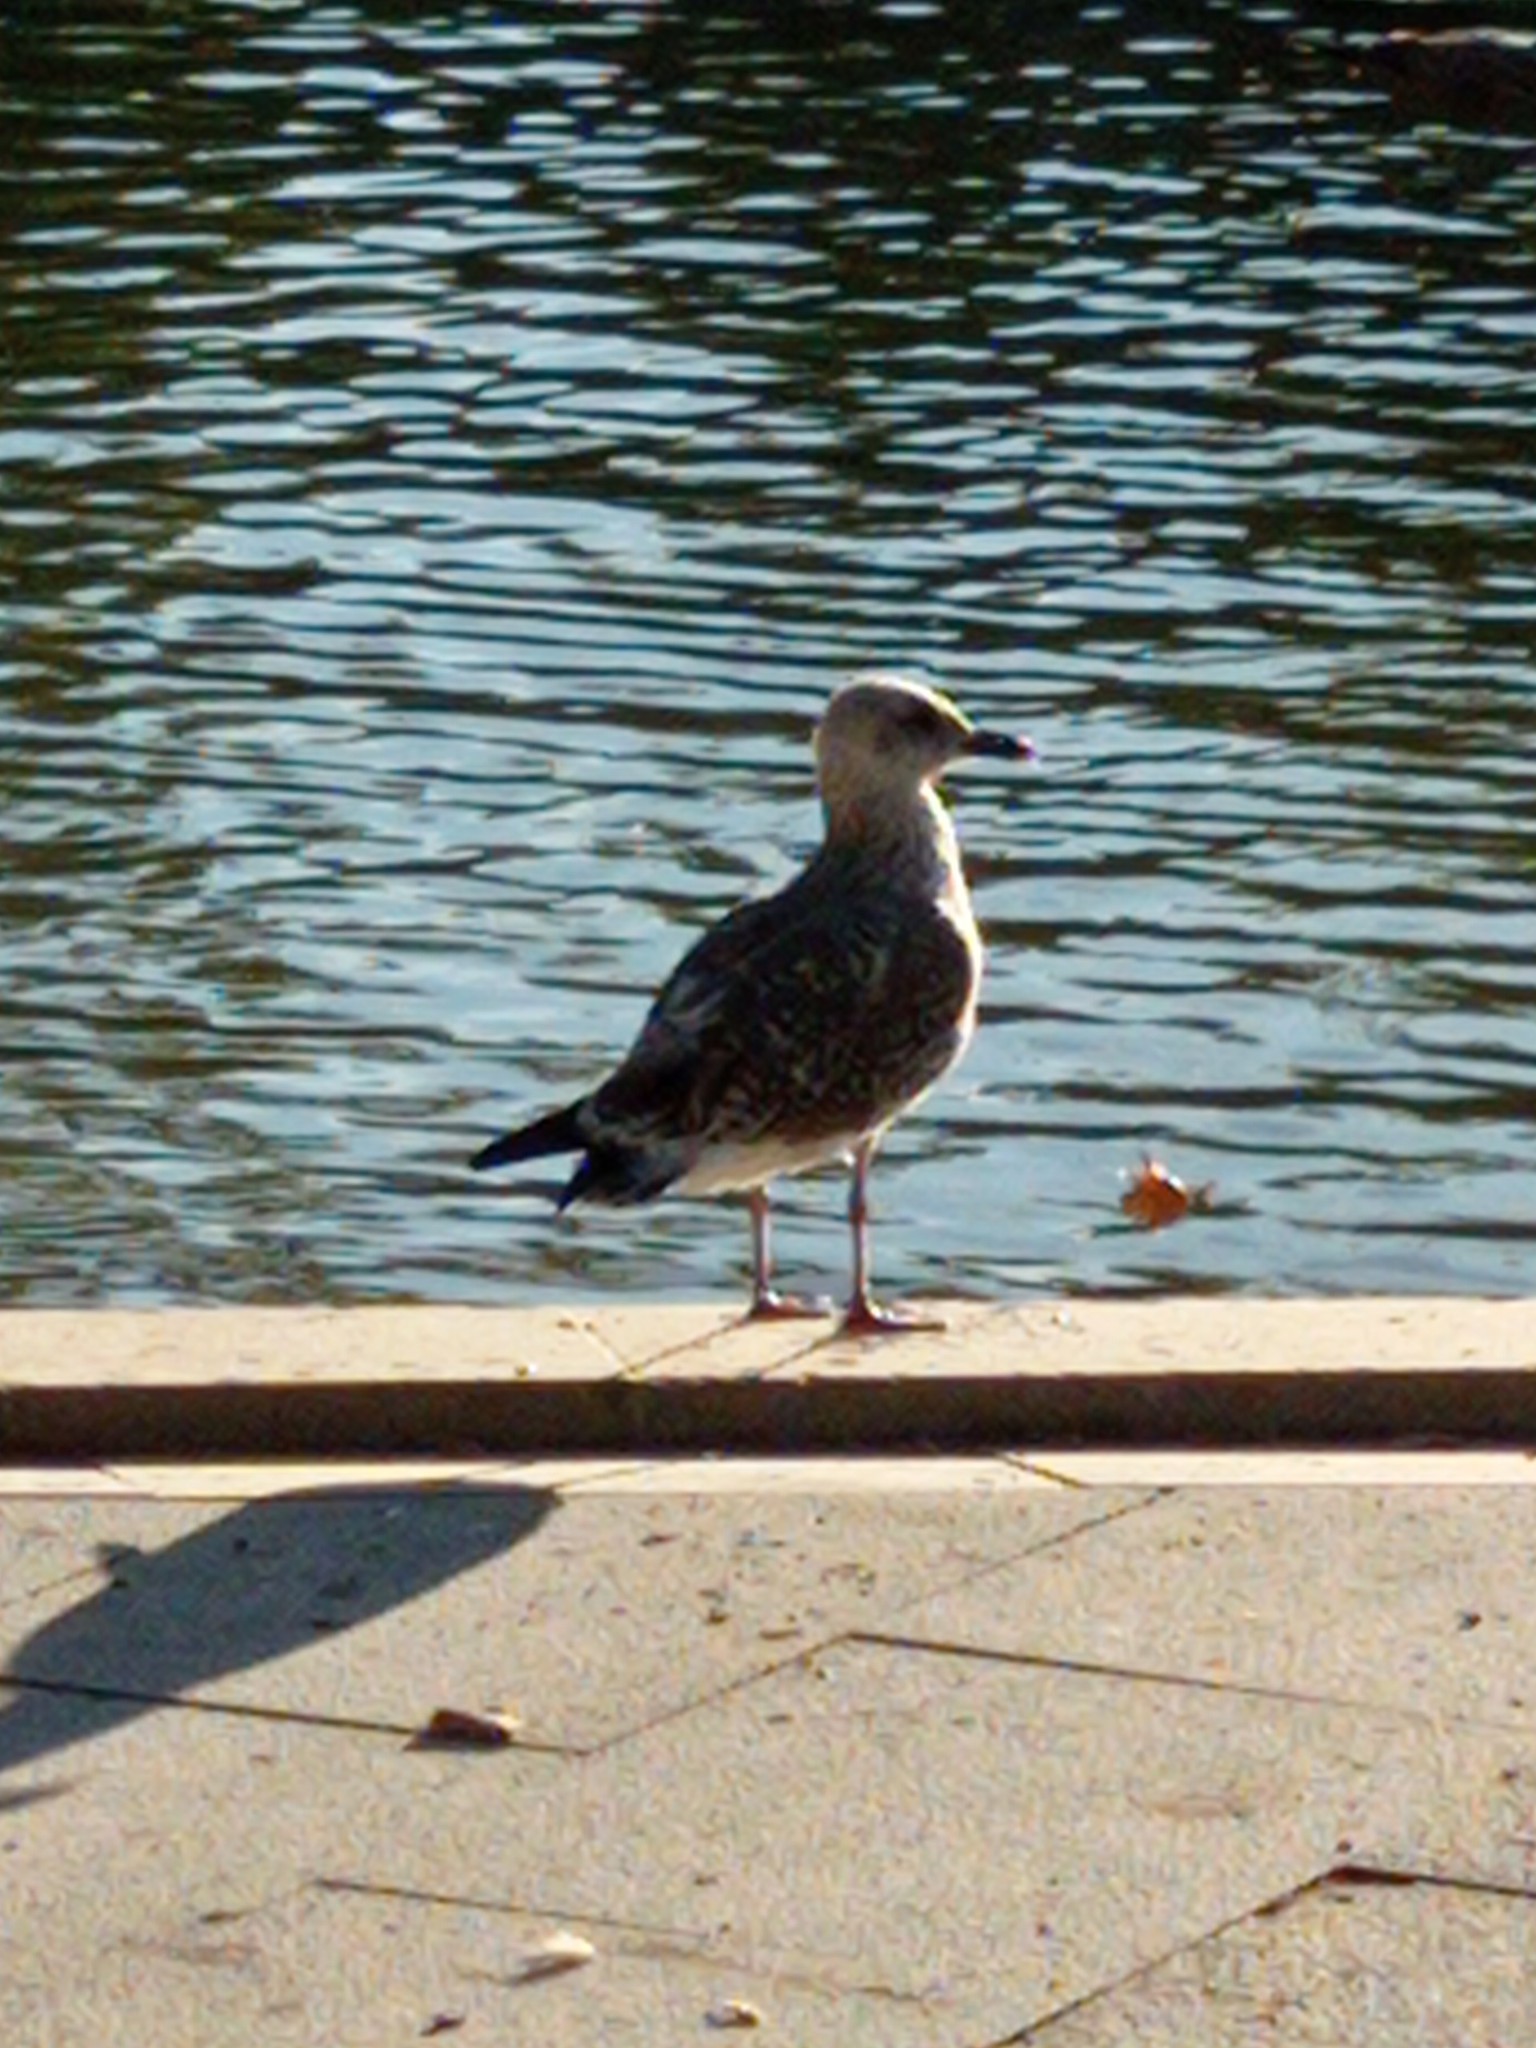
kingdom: Animalia
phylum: Arthropoda
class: Insecta
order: Lepidoptera
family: Geometridae
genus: Aspitates
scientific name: Aspitates ochrearia
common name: Yellow belle
